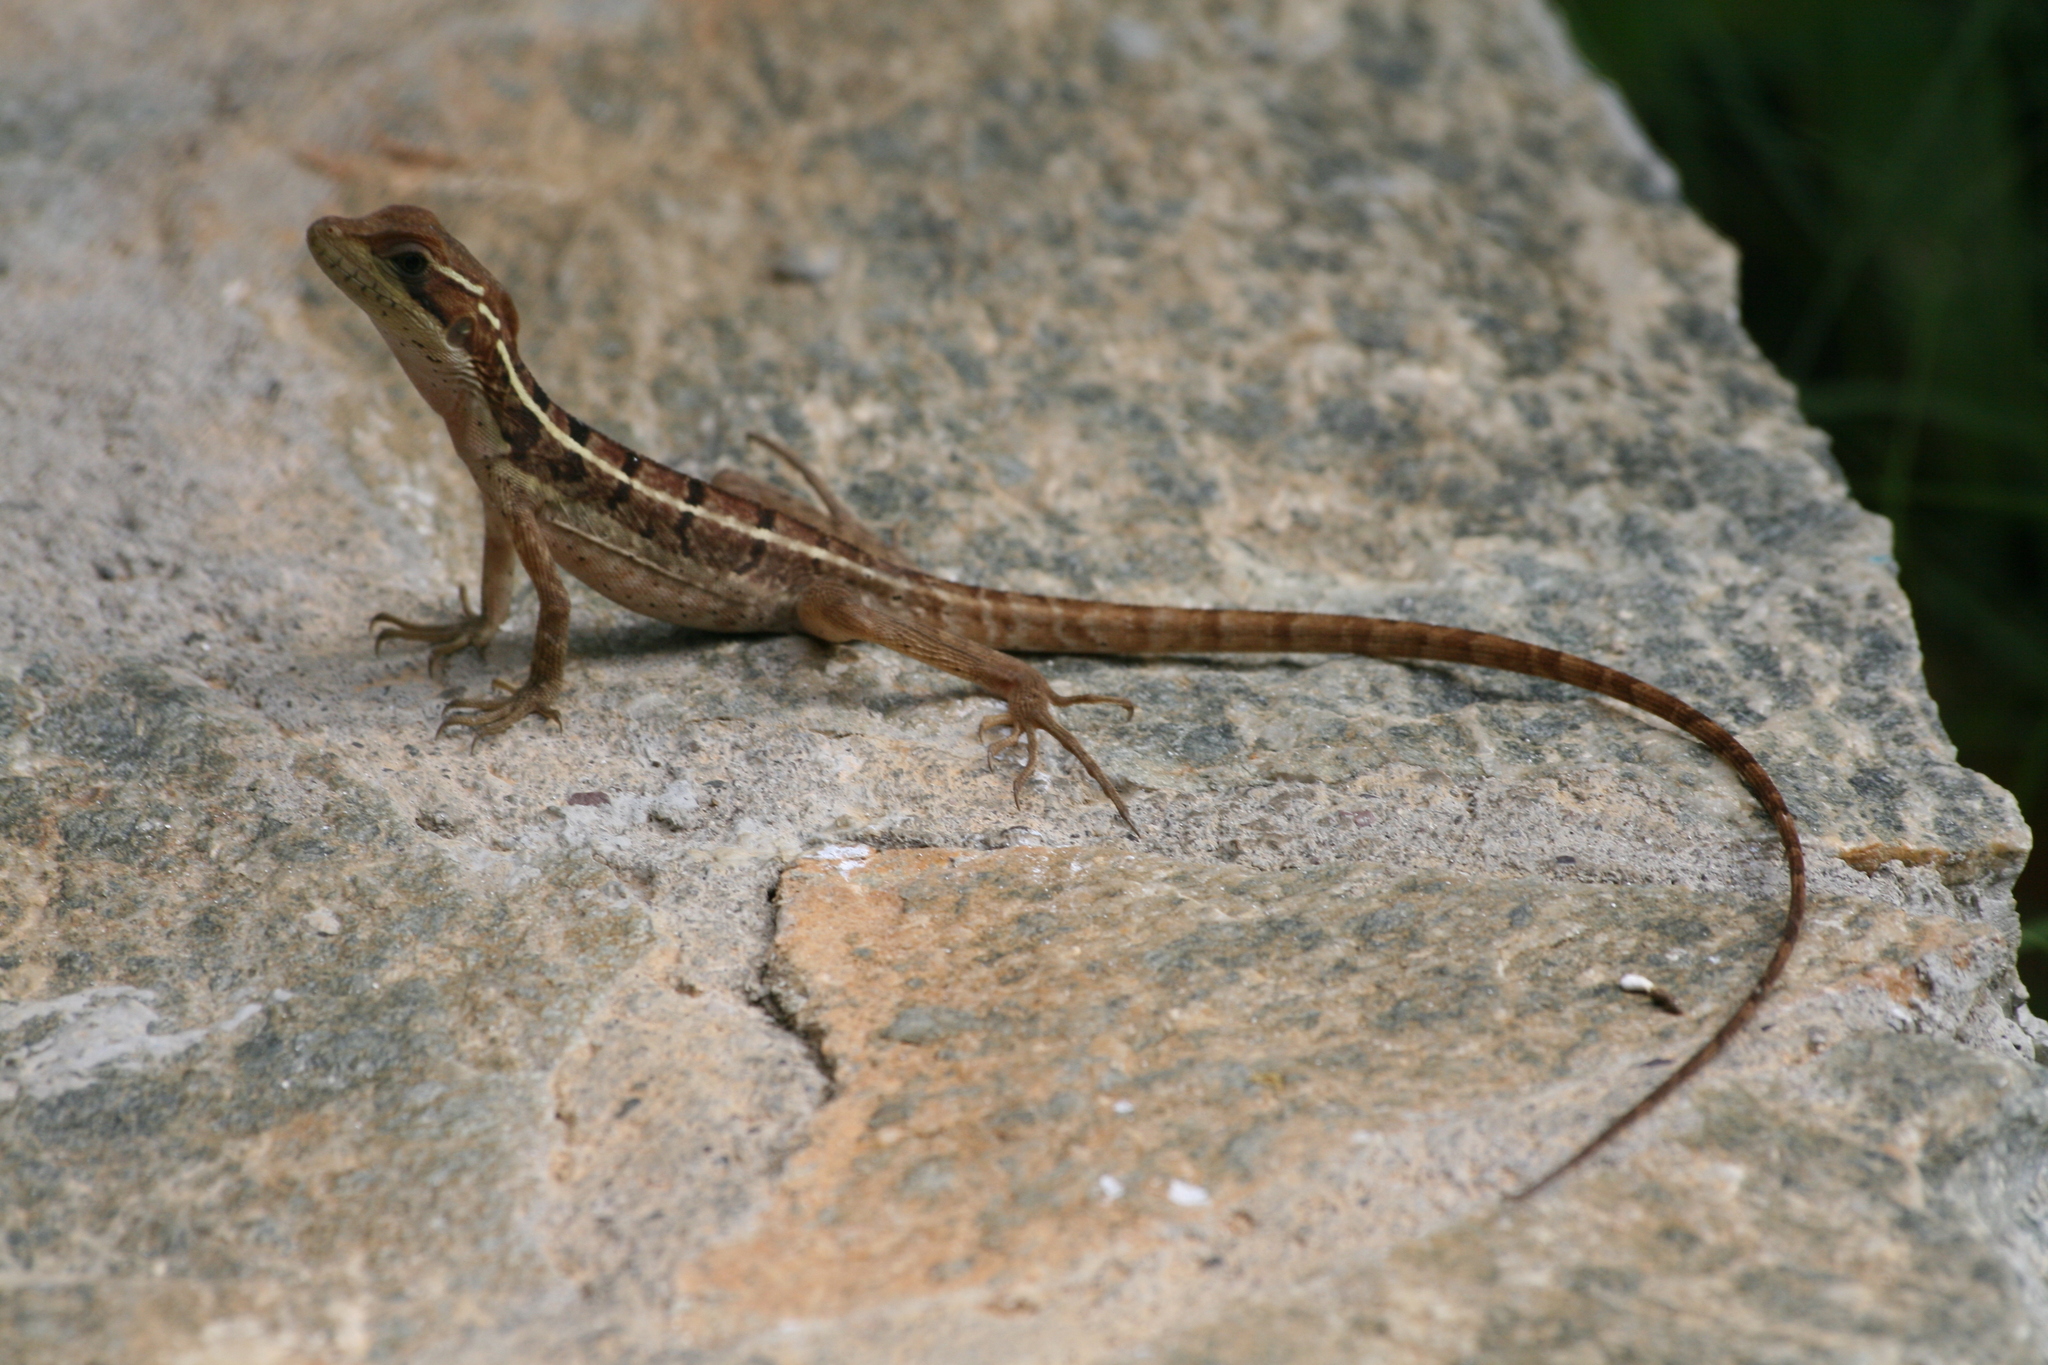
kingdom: Animalia
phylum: Chordata
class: Squamata
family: Corytophanidae
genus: Basiliscus
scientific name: Basiliscus vittatus
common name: Brown basilisk
